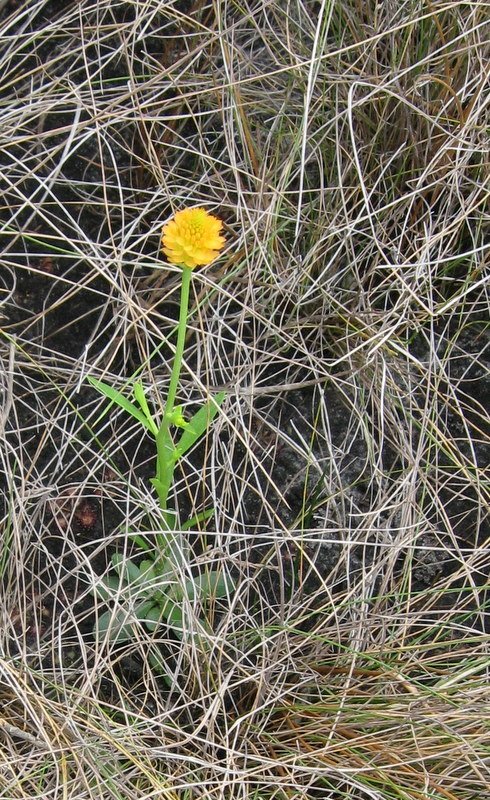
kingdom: Plantae
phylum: Tracheophyta
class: Magnoliopsida
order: Fabales
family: Polygalaceae
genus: Polygala
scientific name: Polygala lutea
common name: Orange milkwort
